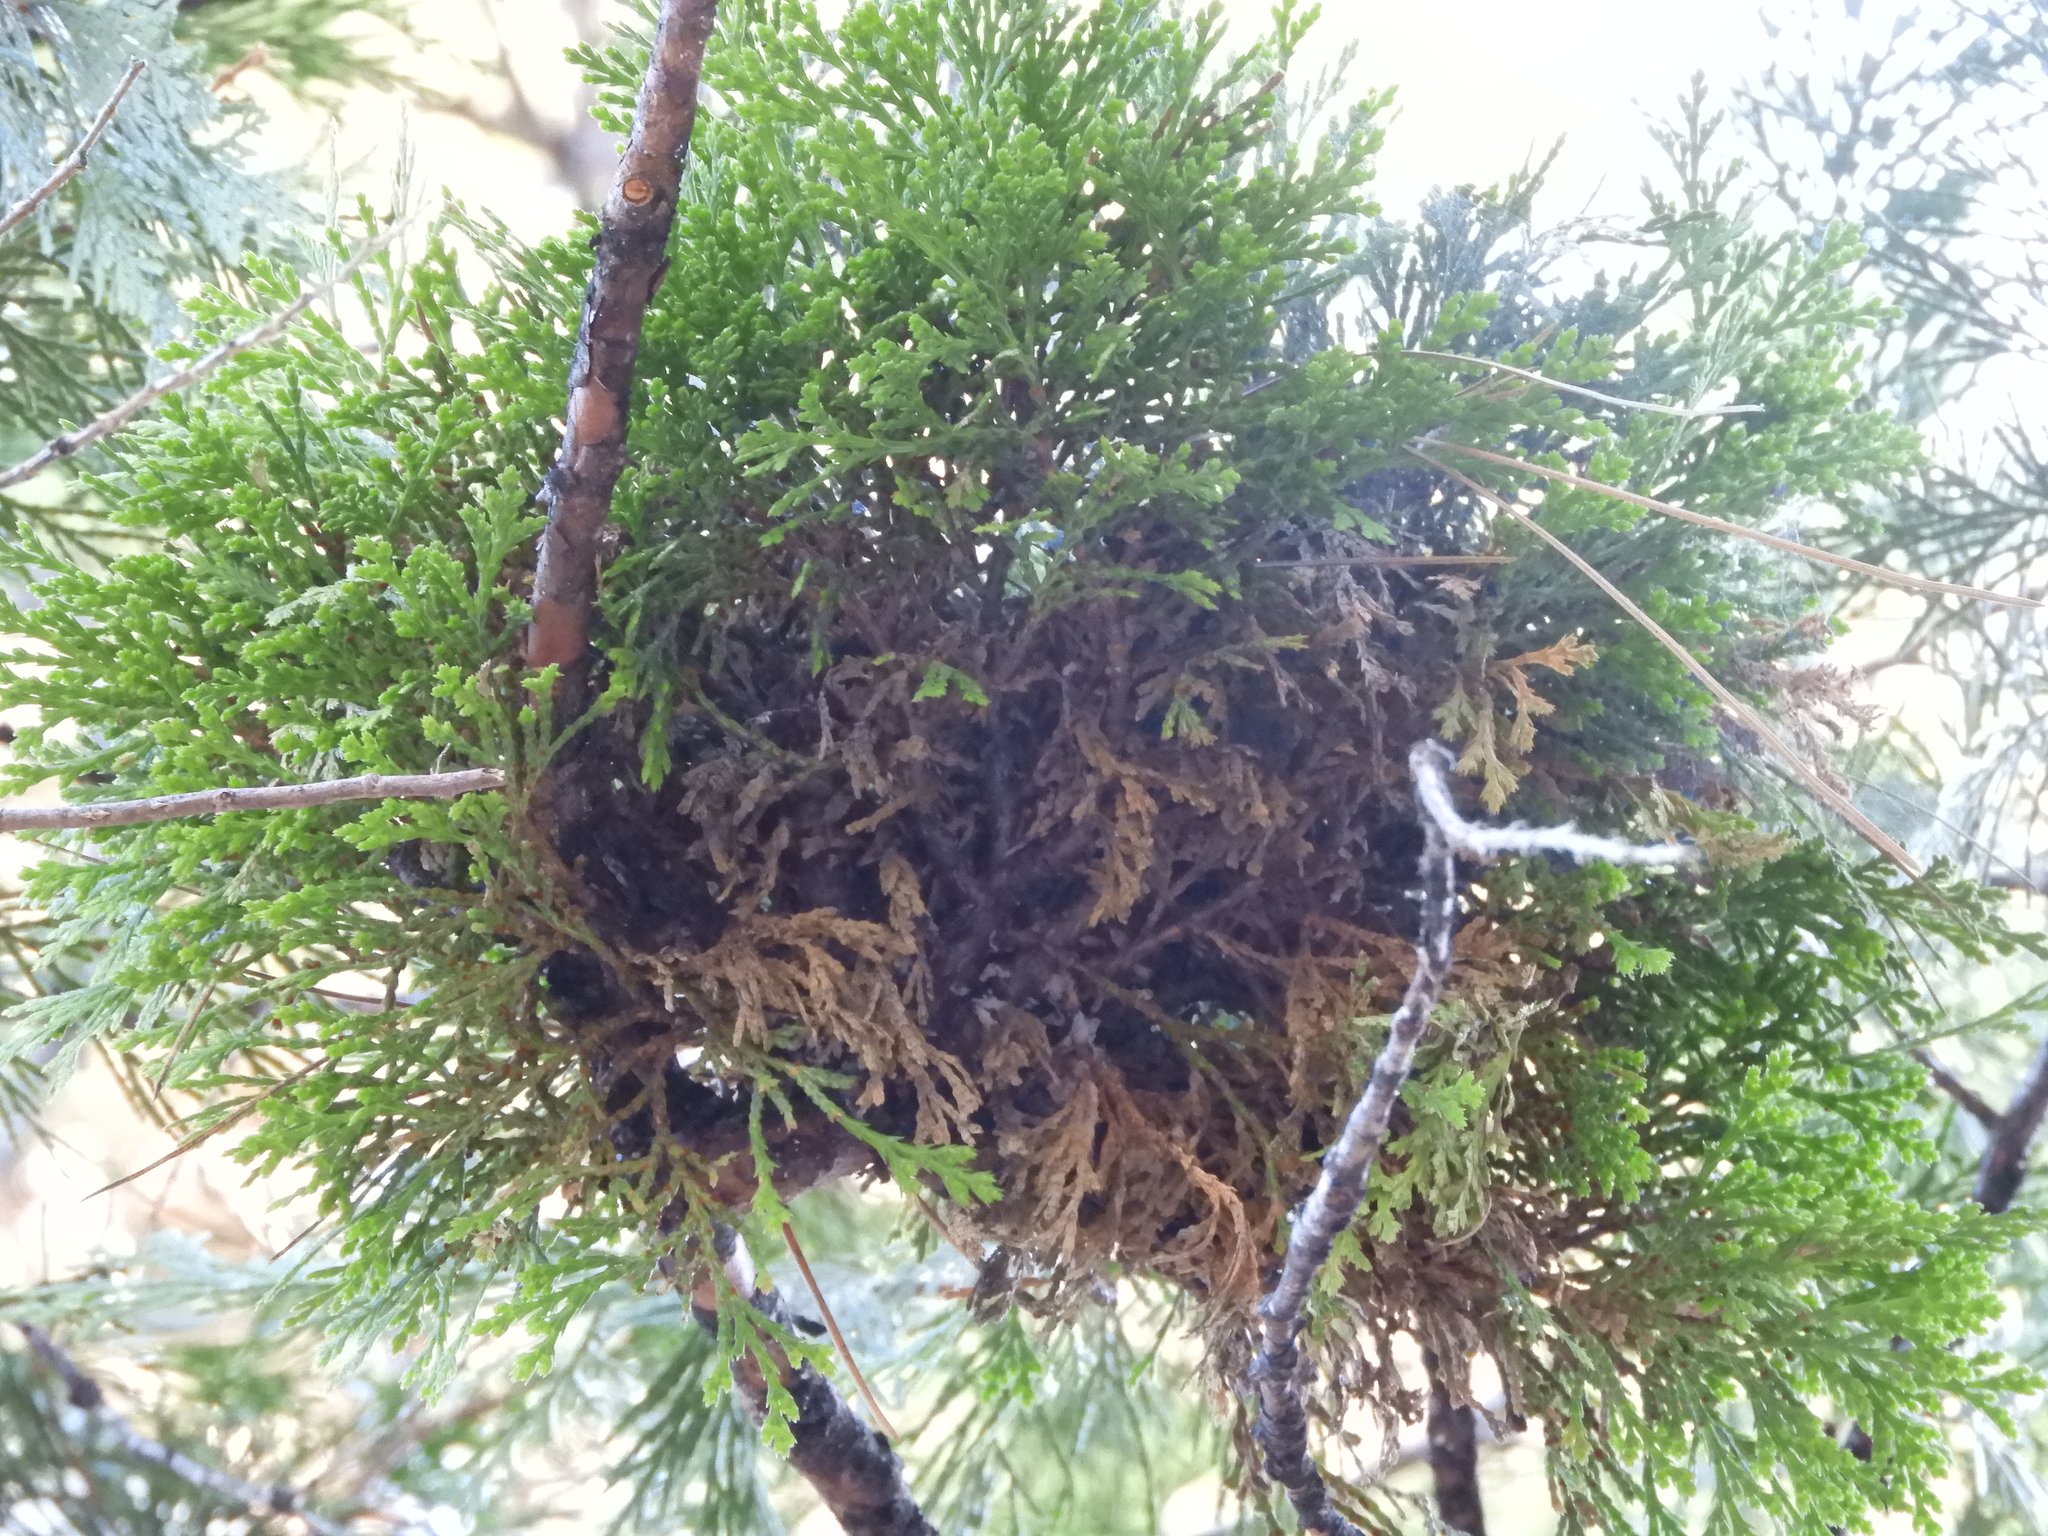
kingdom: Fungi
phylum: Basidiomycota
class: Pucciniomycetes
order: Pucciniales
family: Pucciniaceae
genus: Gymnotelium
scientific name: Gymnotelium blasdaleanum
